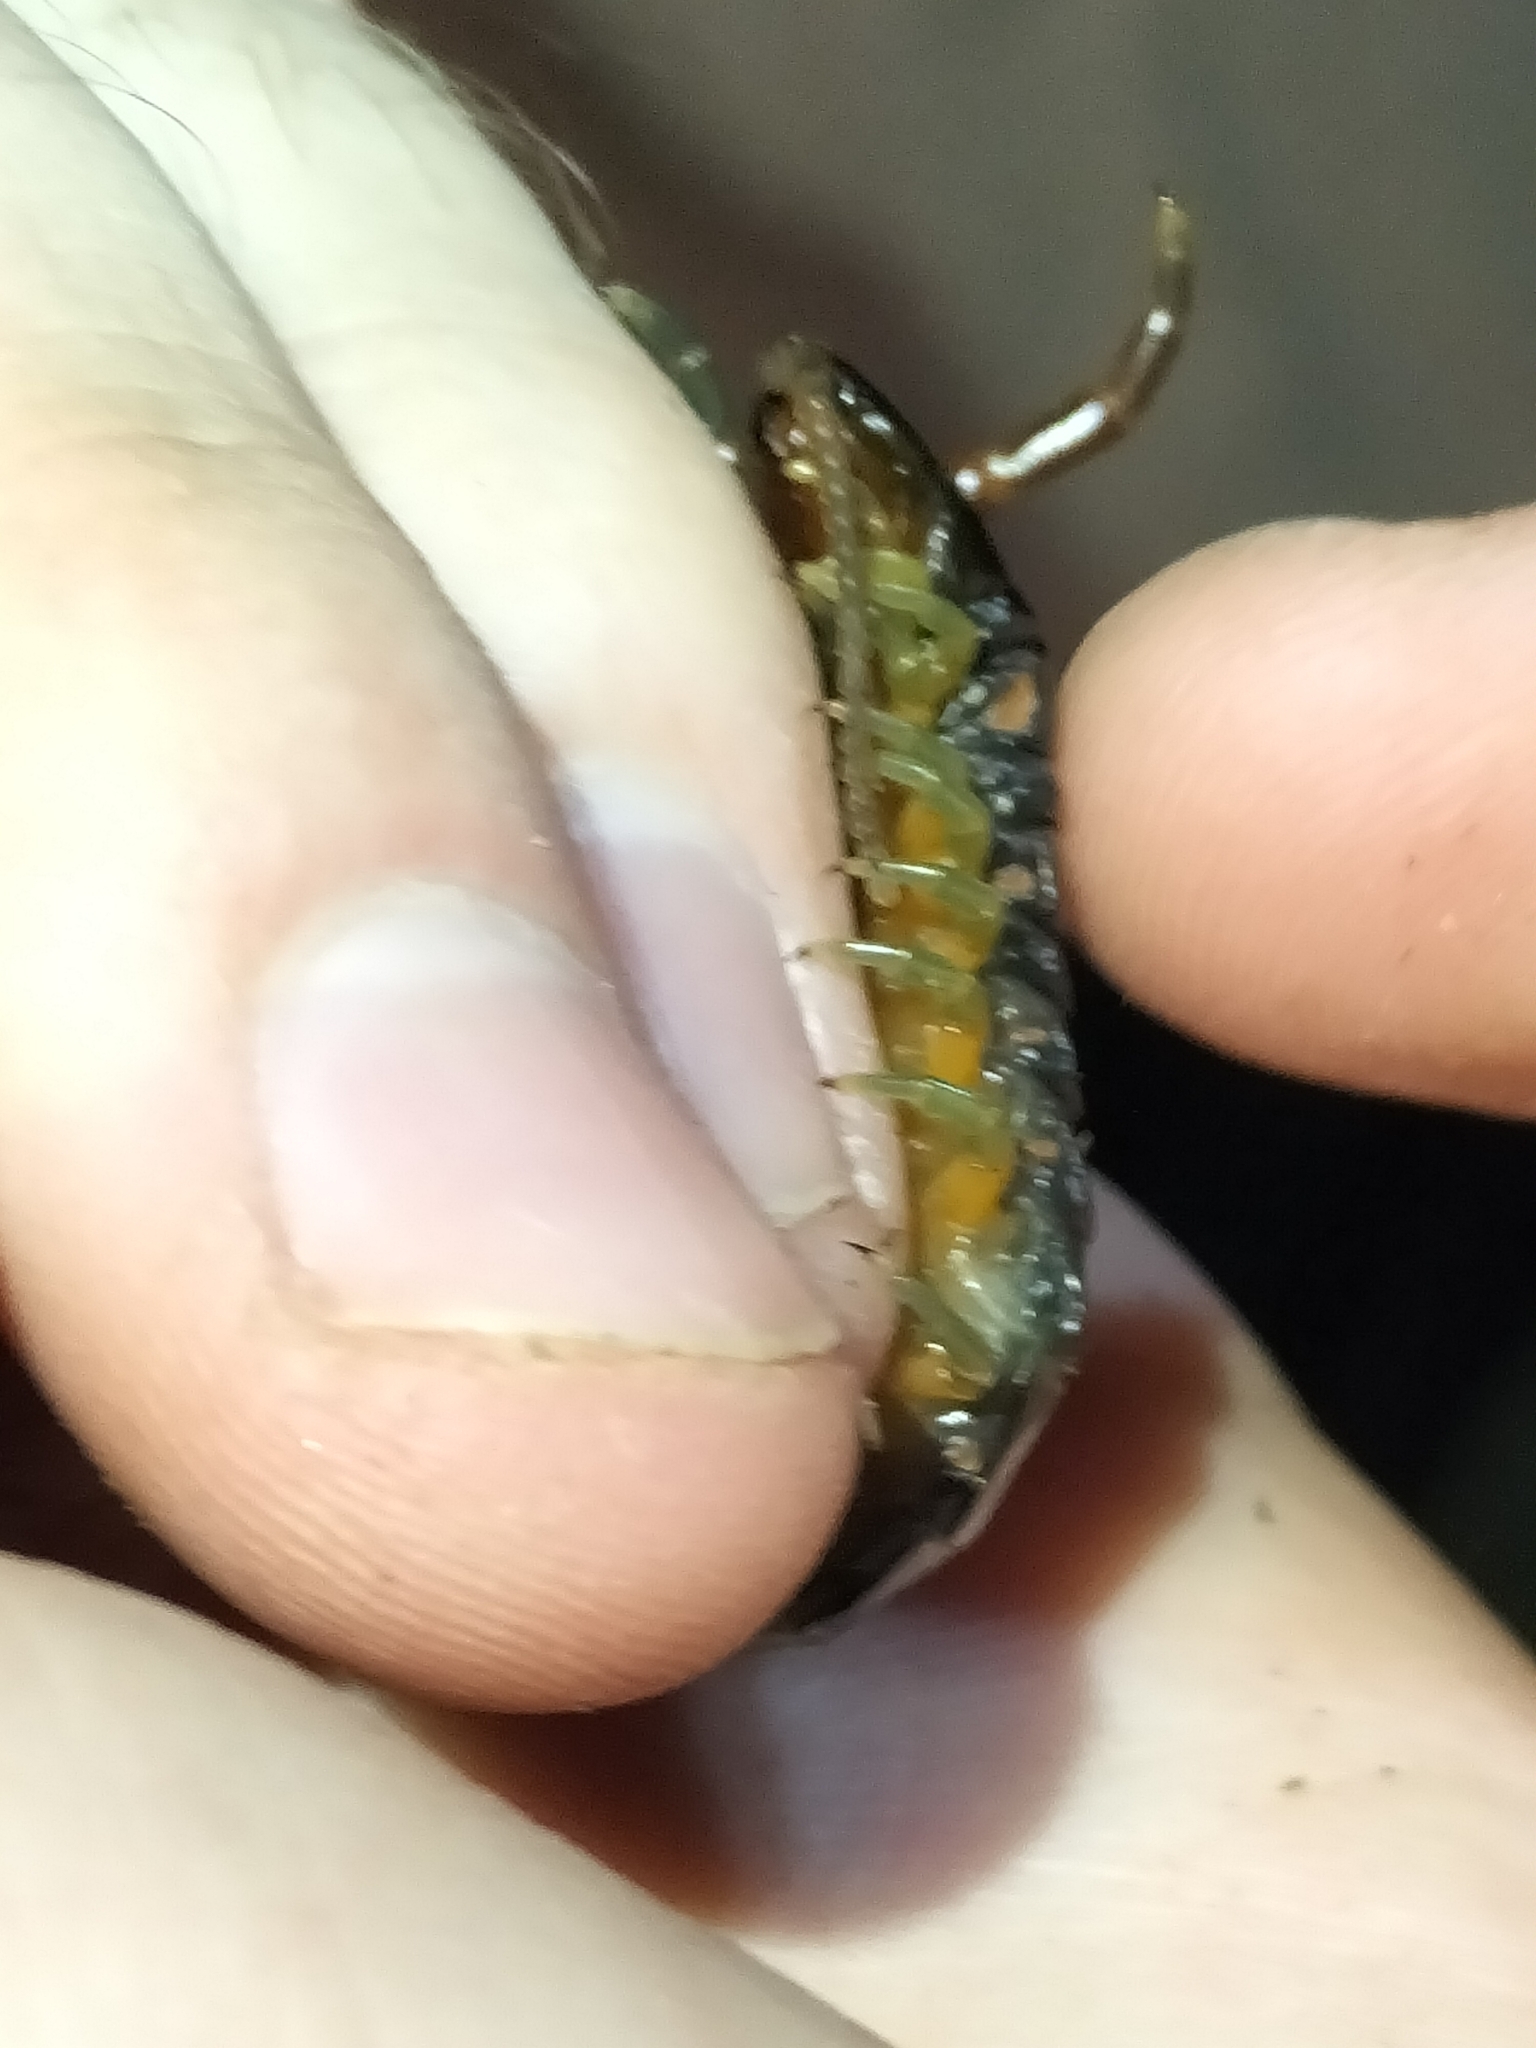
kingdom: Animalia
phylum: Arthropoda
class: Chilopoda
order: Scolopendromorpha
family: Scolopendridae
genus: Ethmostigmus
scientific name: Ethmostigmus rubripes
